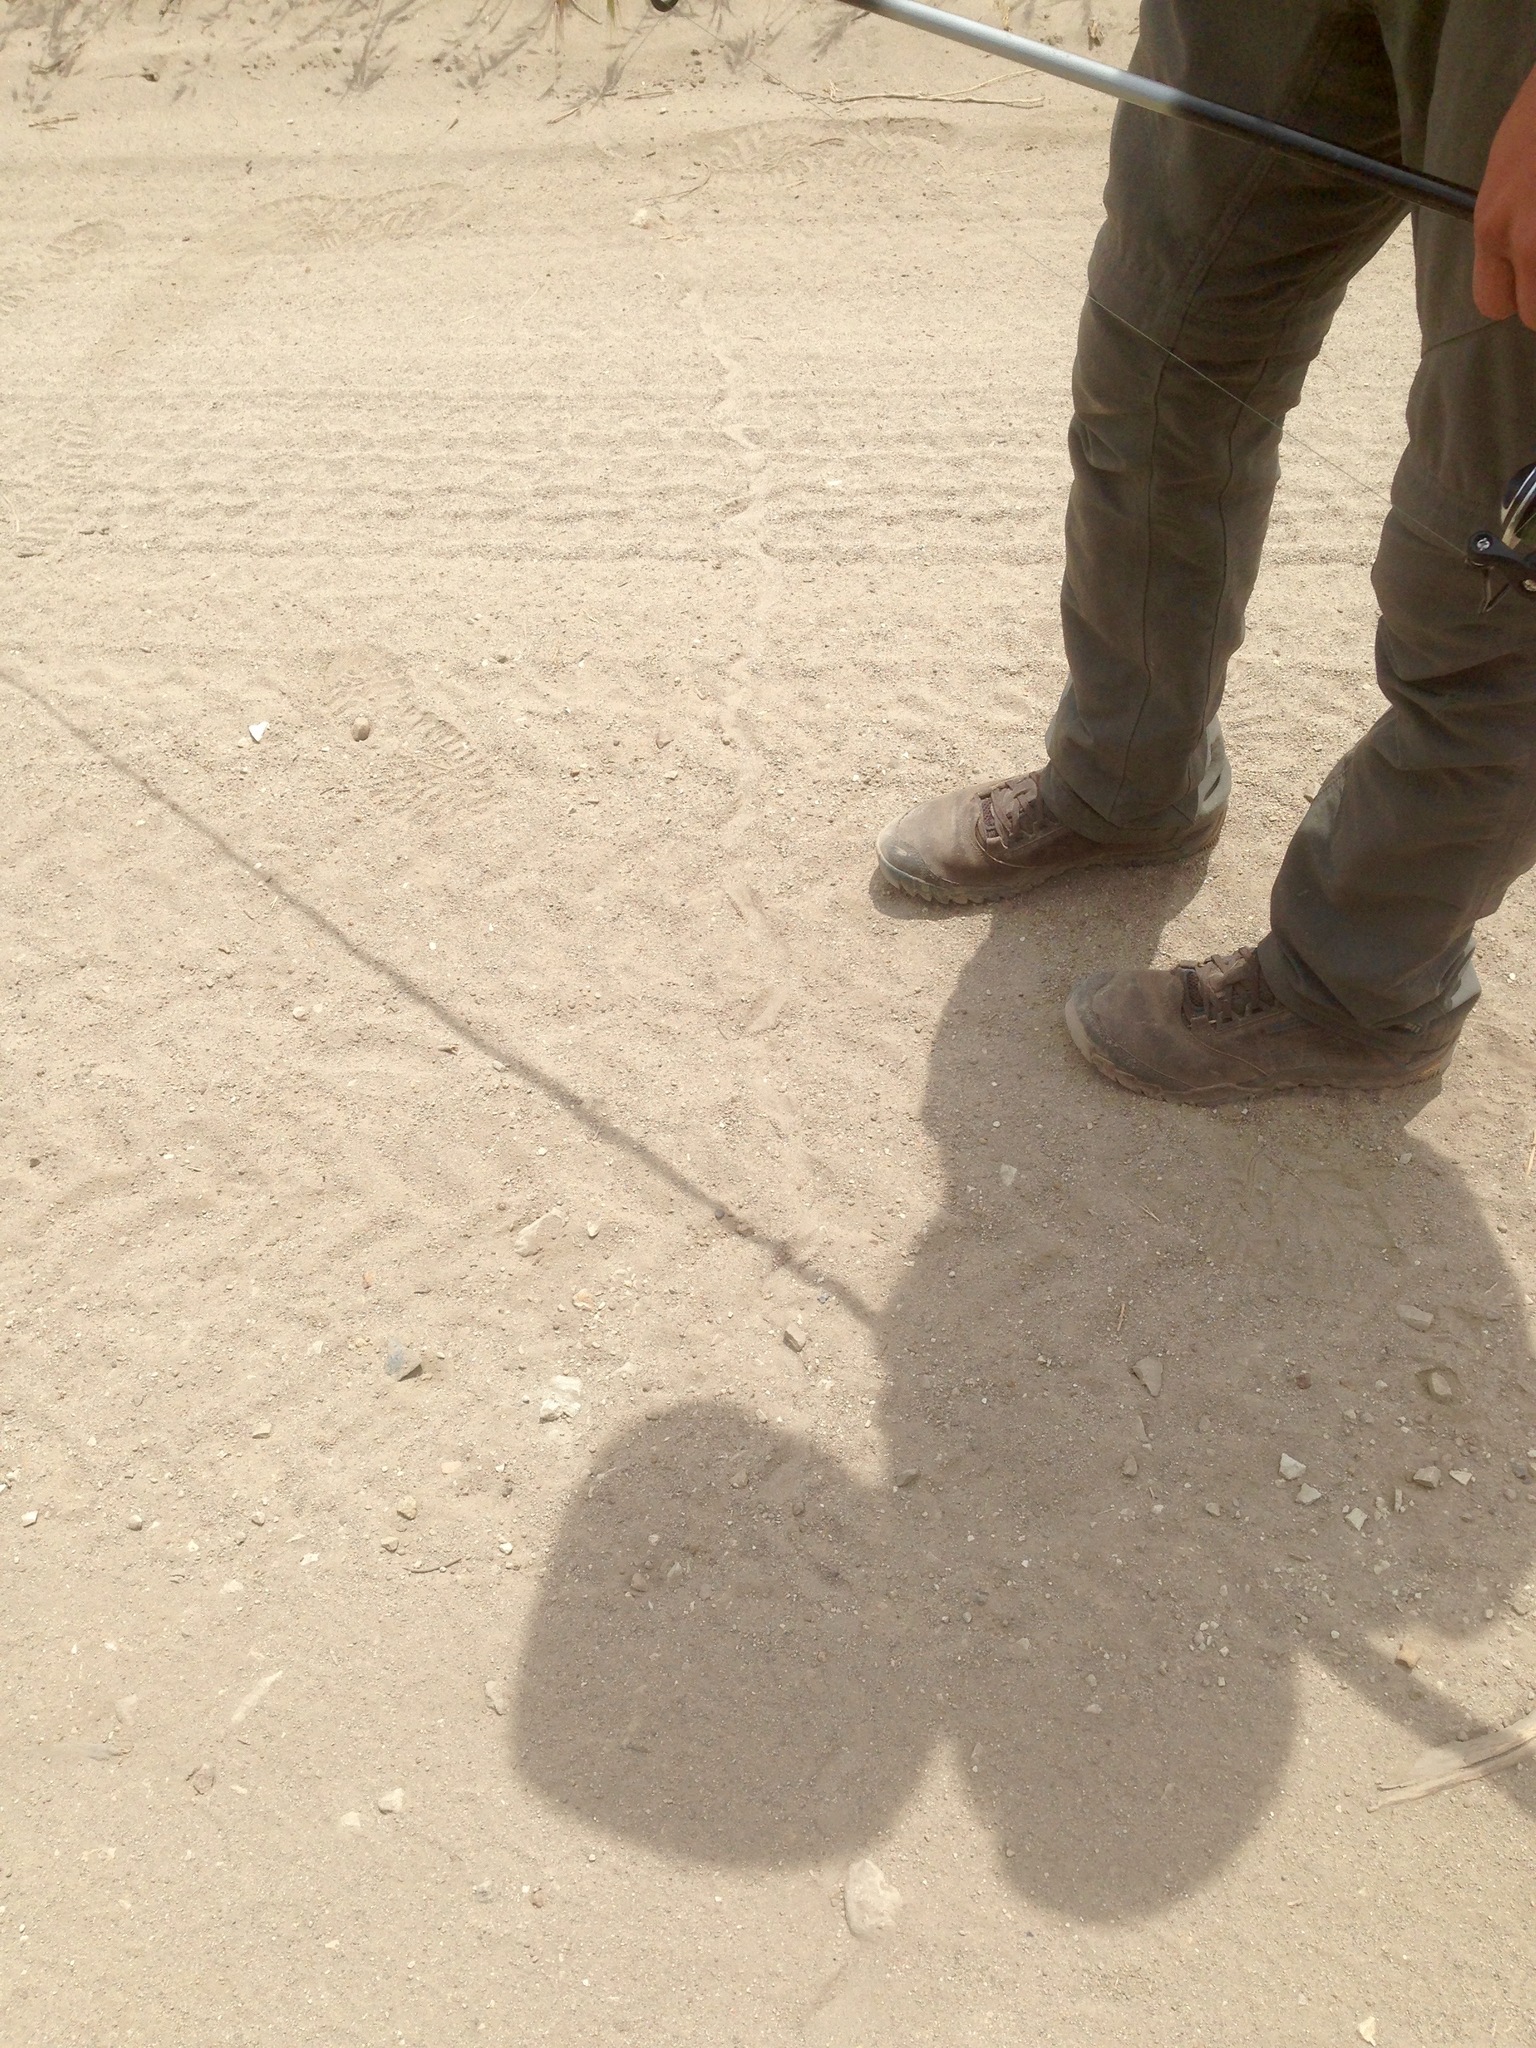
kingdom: Animalia
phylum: Chordata
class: Squamata
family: Colubridae
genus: Pituophis
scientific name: Pituophis catenifer
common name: Gopher snake
